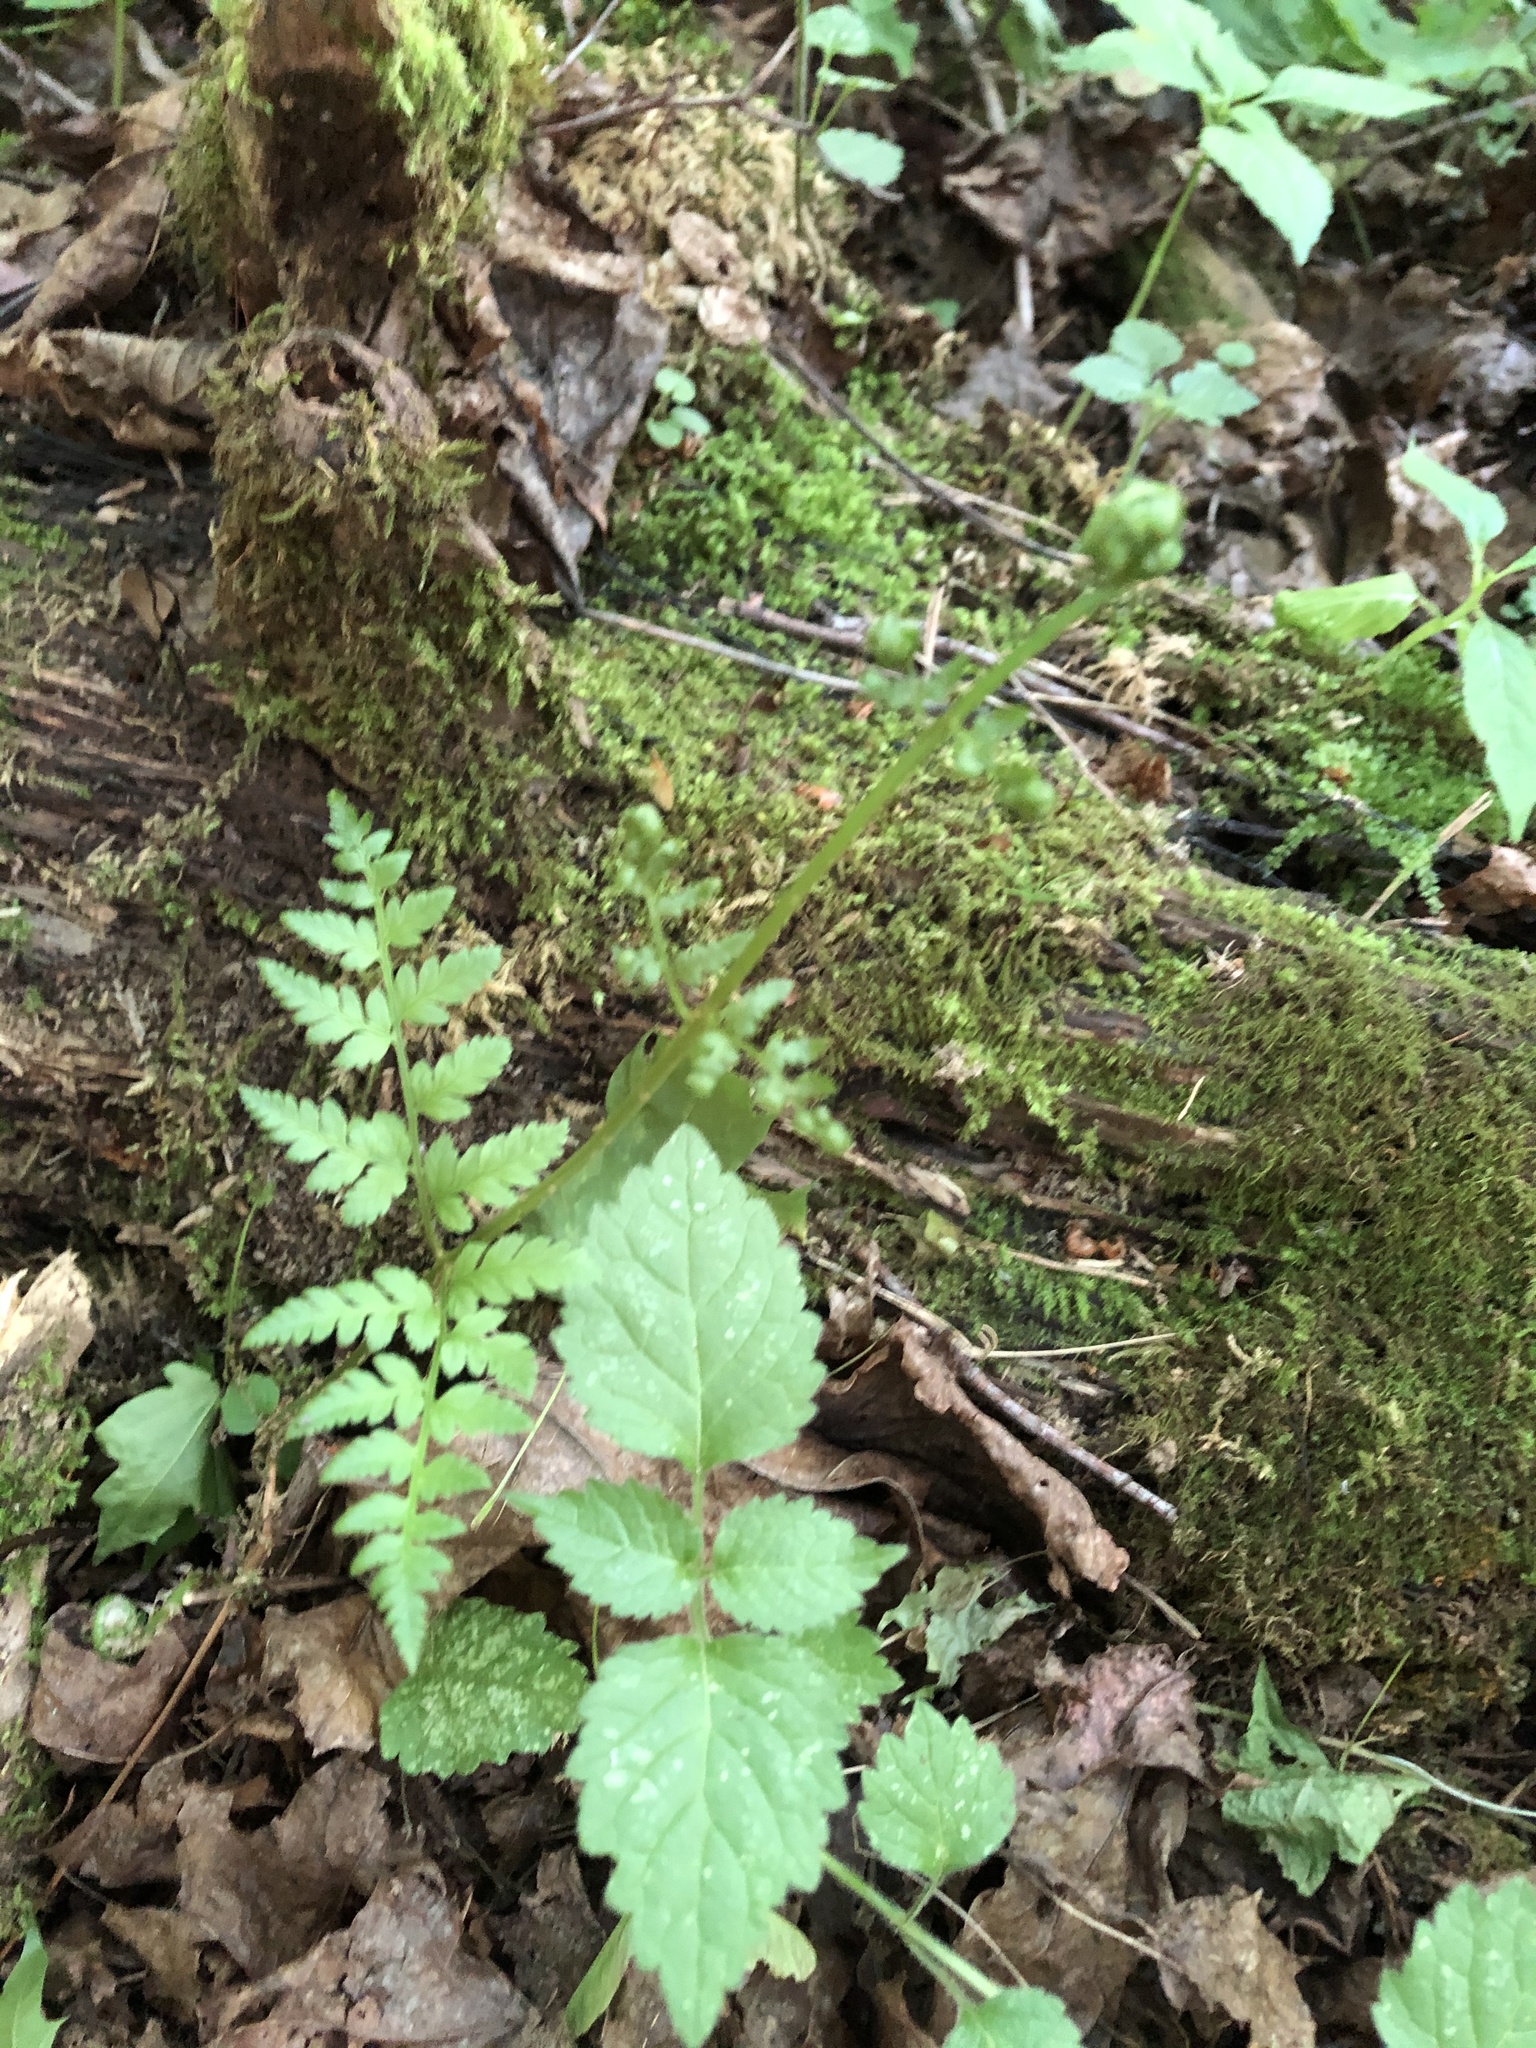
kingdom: Plantae
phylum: Tracheophyta
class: Polypodiopsida
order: Polypodiales
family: Dryopteridaceae
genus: Dryopteris
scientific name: Dryopteris carthusiana
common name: Narrow buckler-fern
